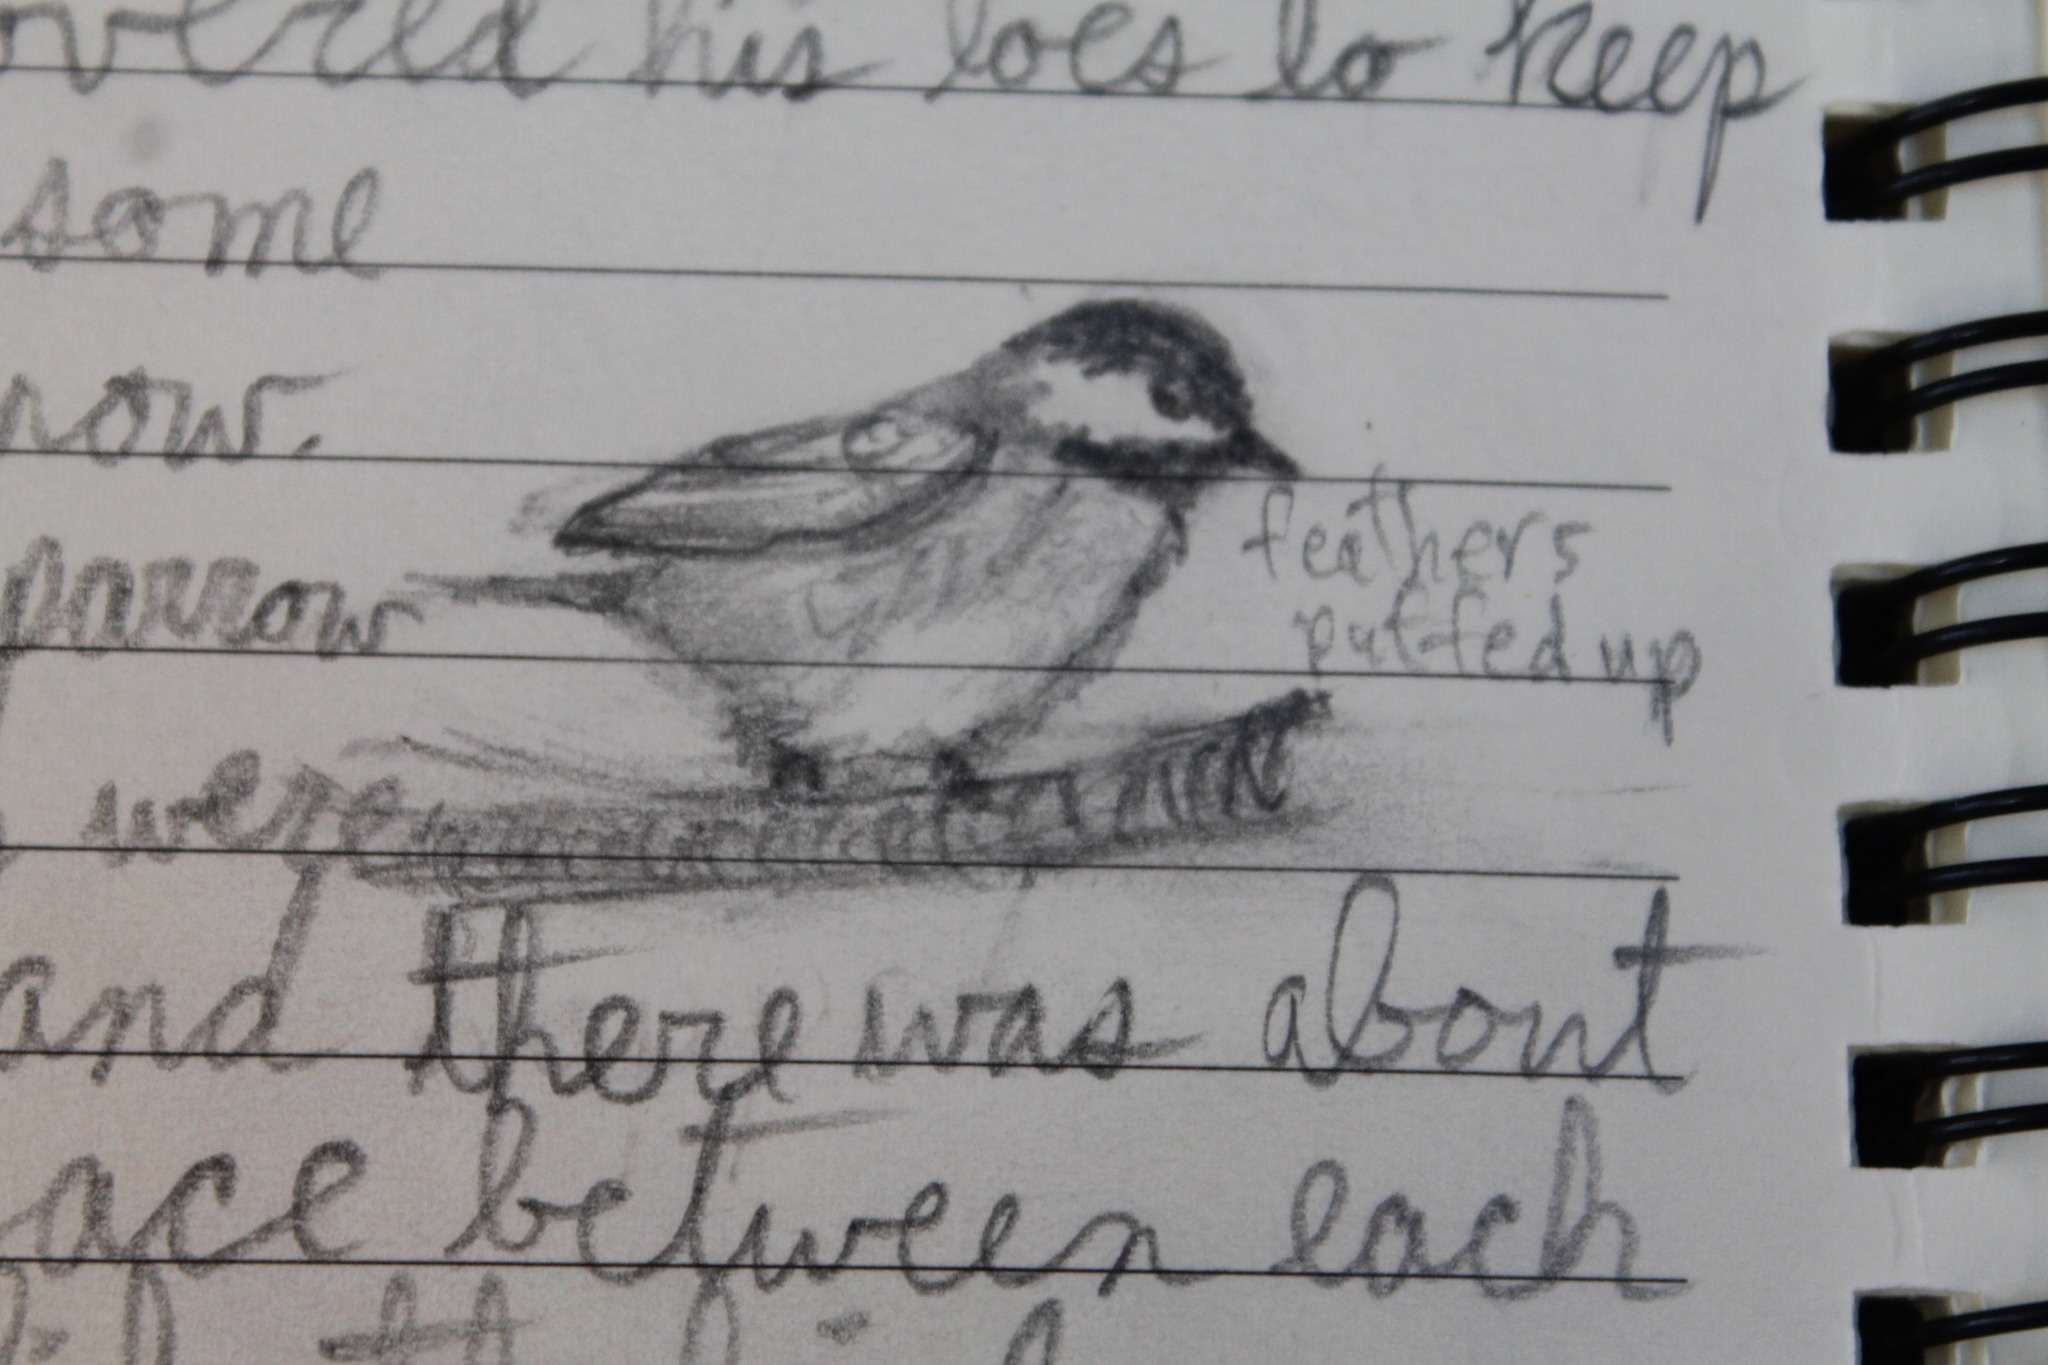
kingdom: Animalia
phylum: Chordata
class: Aves
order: Passeriformes
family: Paridae
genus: Poecile
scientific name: Poecile atricapillus
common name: Black-capped chickadee
